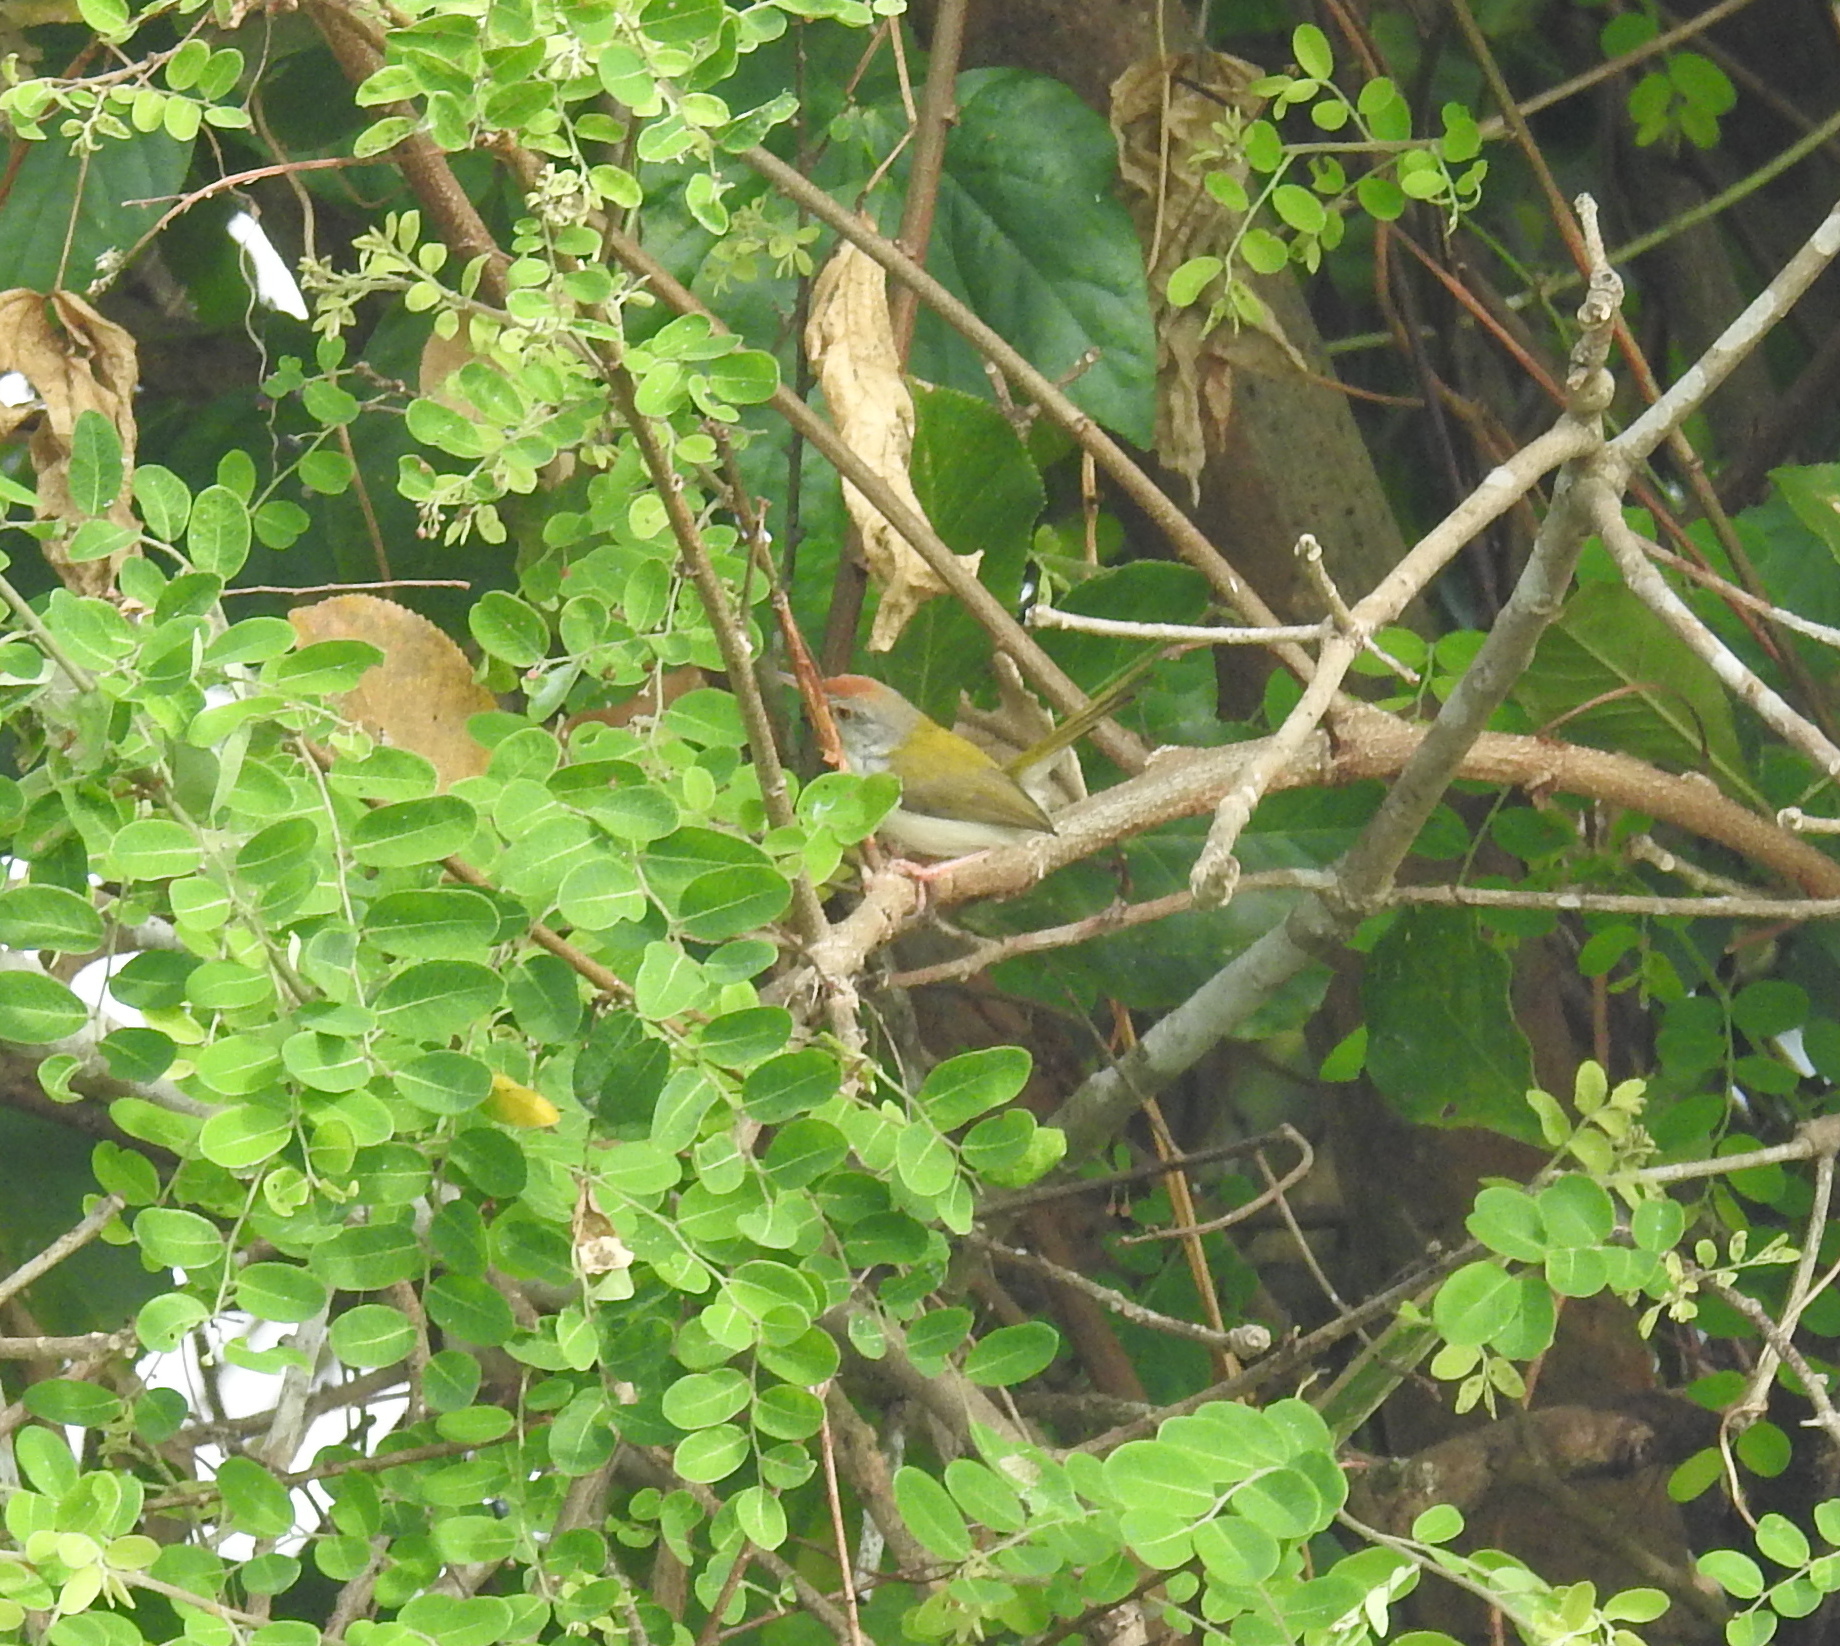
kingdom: Animalia
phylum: Chordata
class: Aves
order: Passeriformes
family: Cisticolidae
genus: Orthotomus
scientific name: Orthotomus sutorius
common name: Common tailorbird
